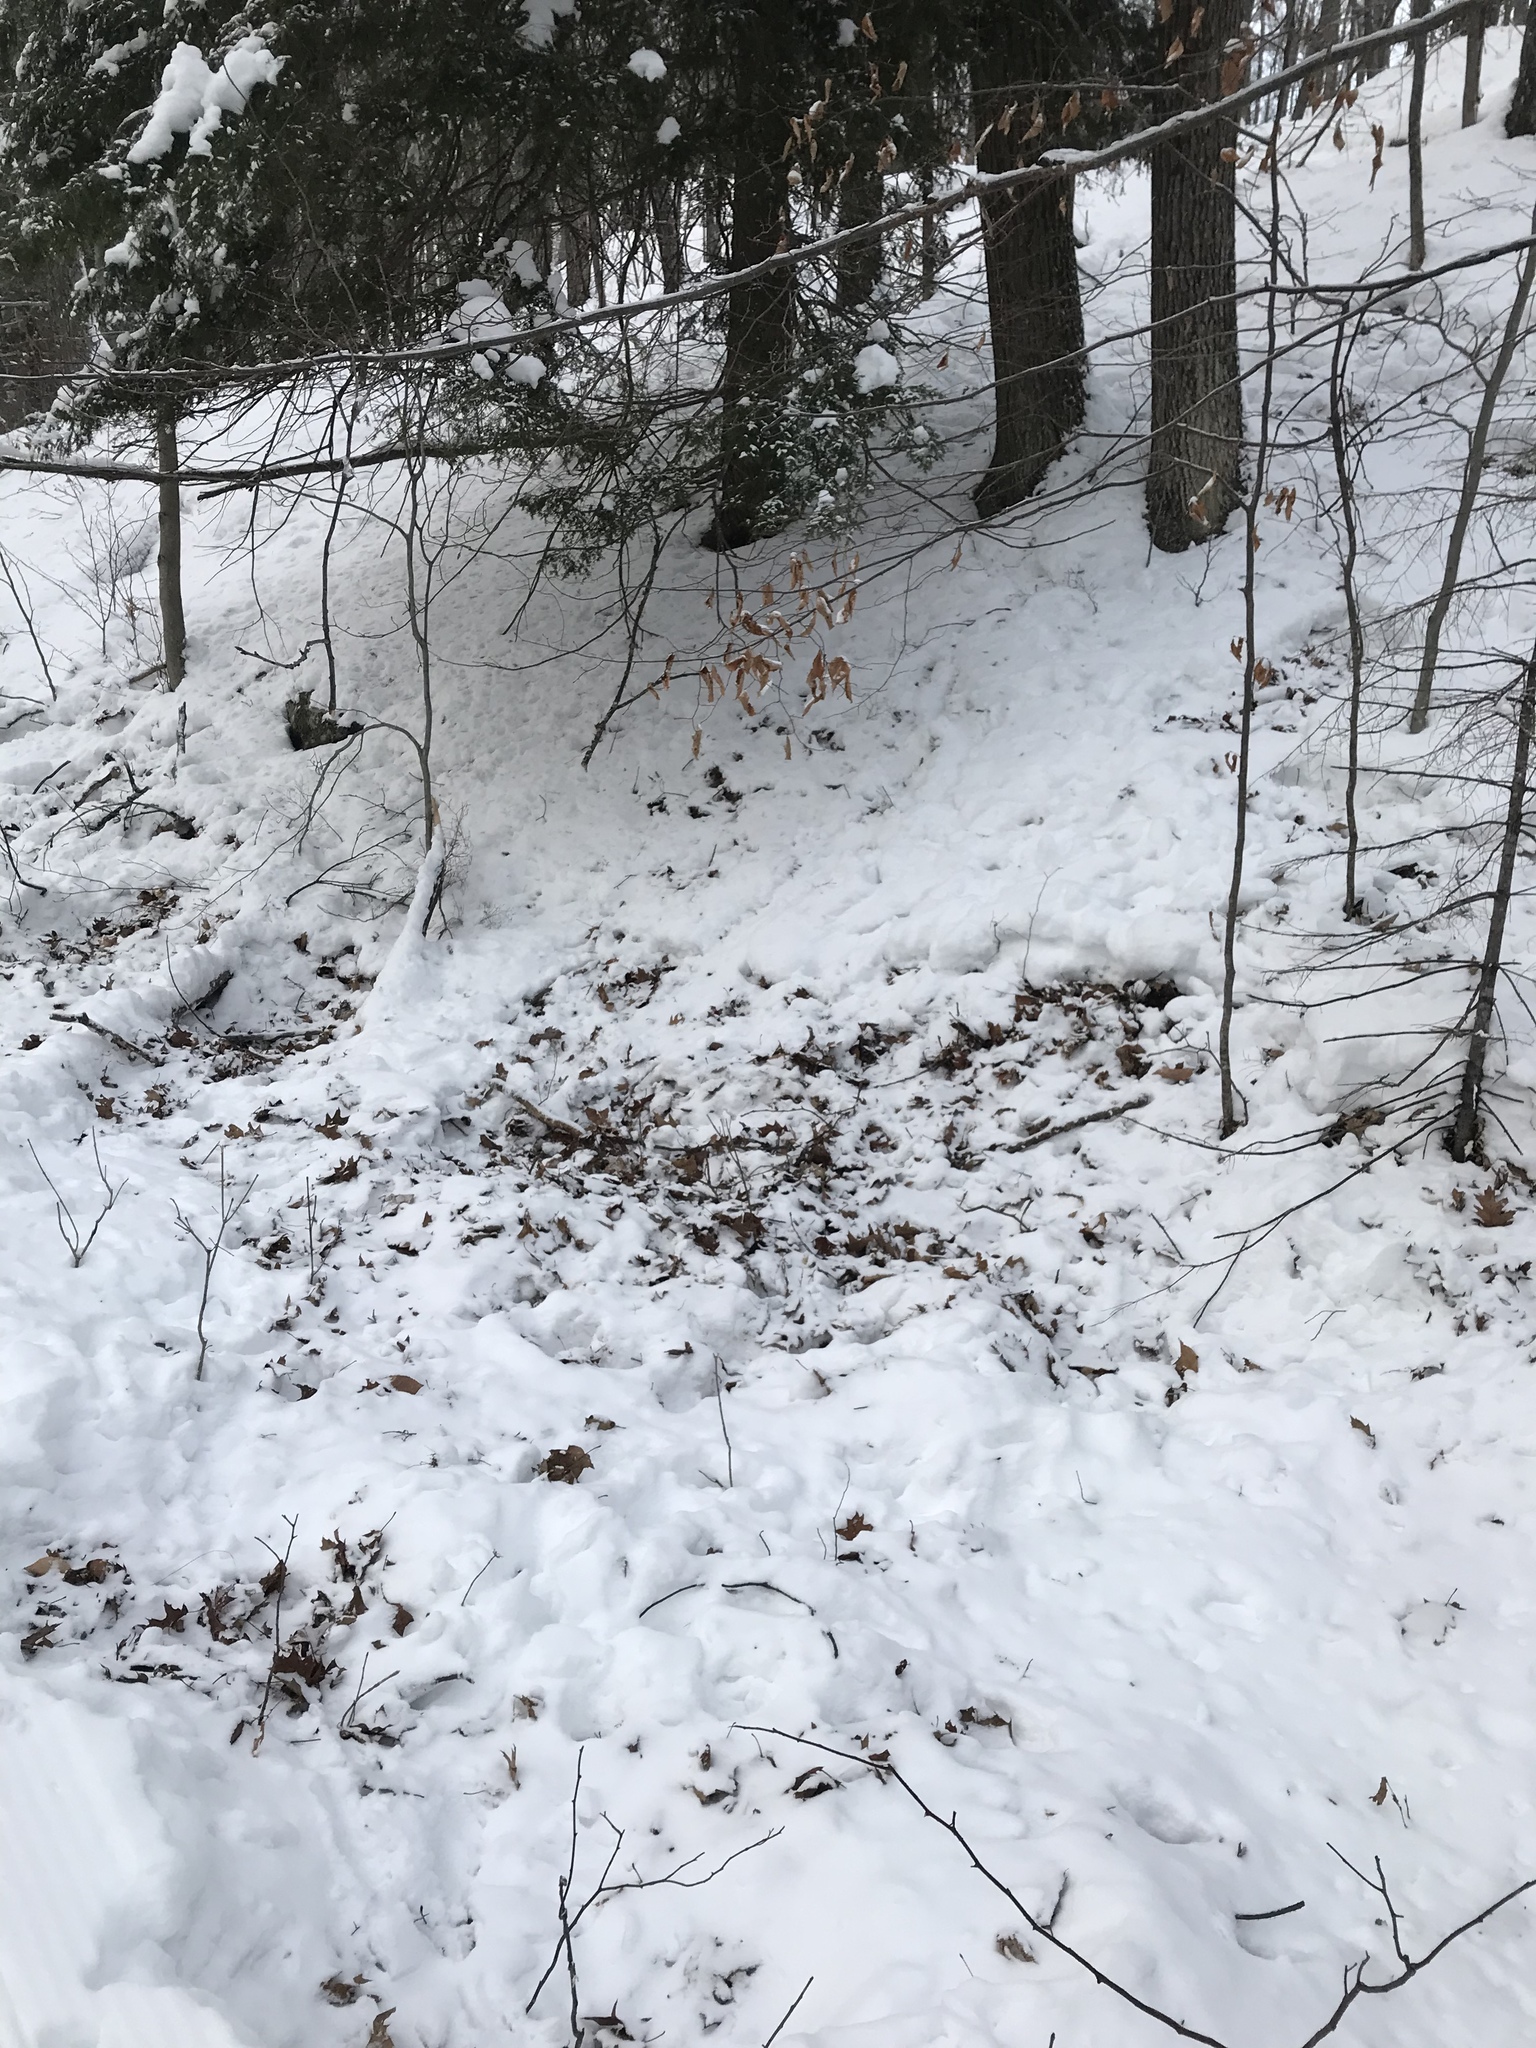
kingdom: Animalia
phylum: Chordata
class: Mammalia
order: Artiodactyla
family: Cervidae
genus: Odocoileus
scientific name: Odocoileus virginianus
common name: White-tailed deer
